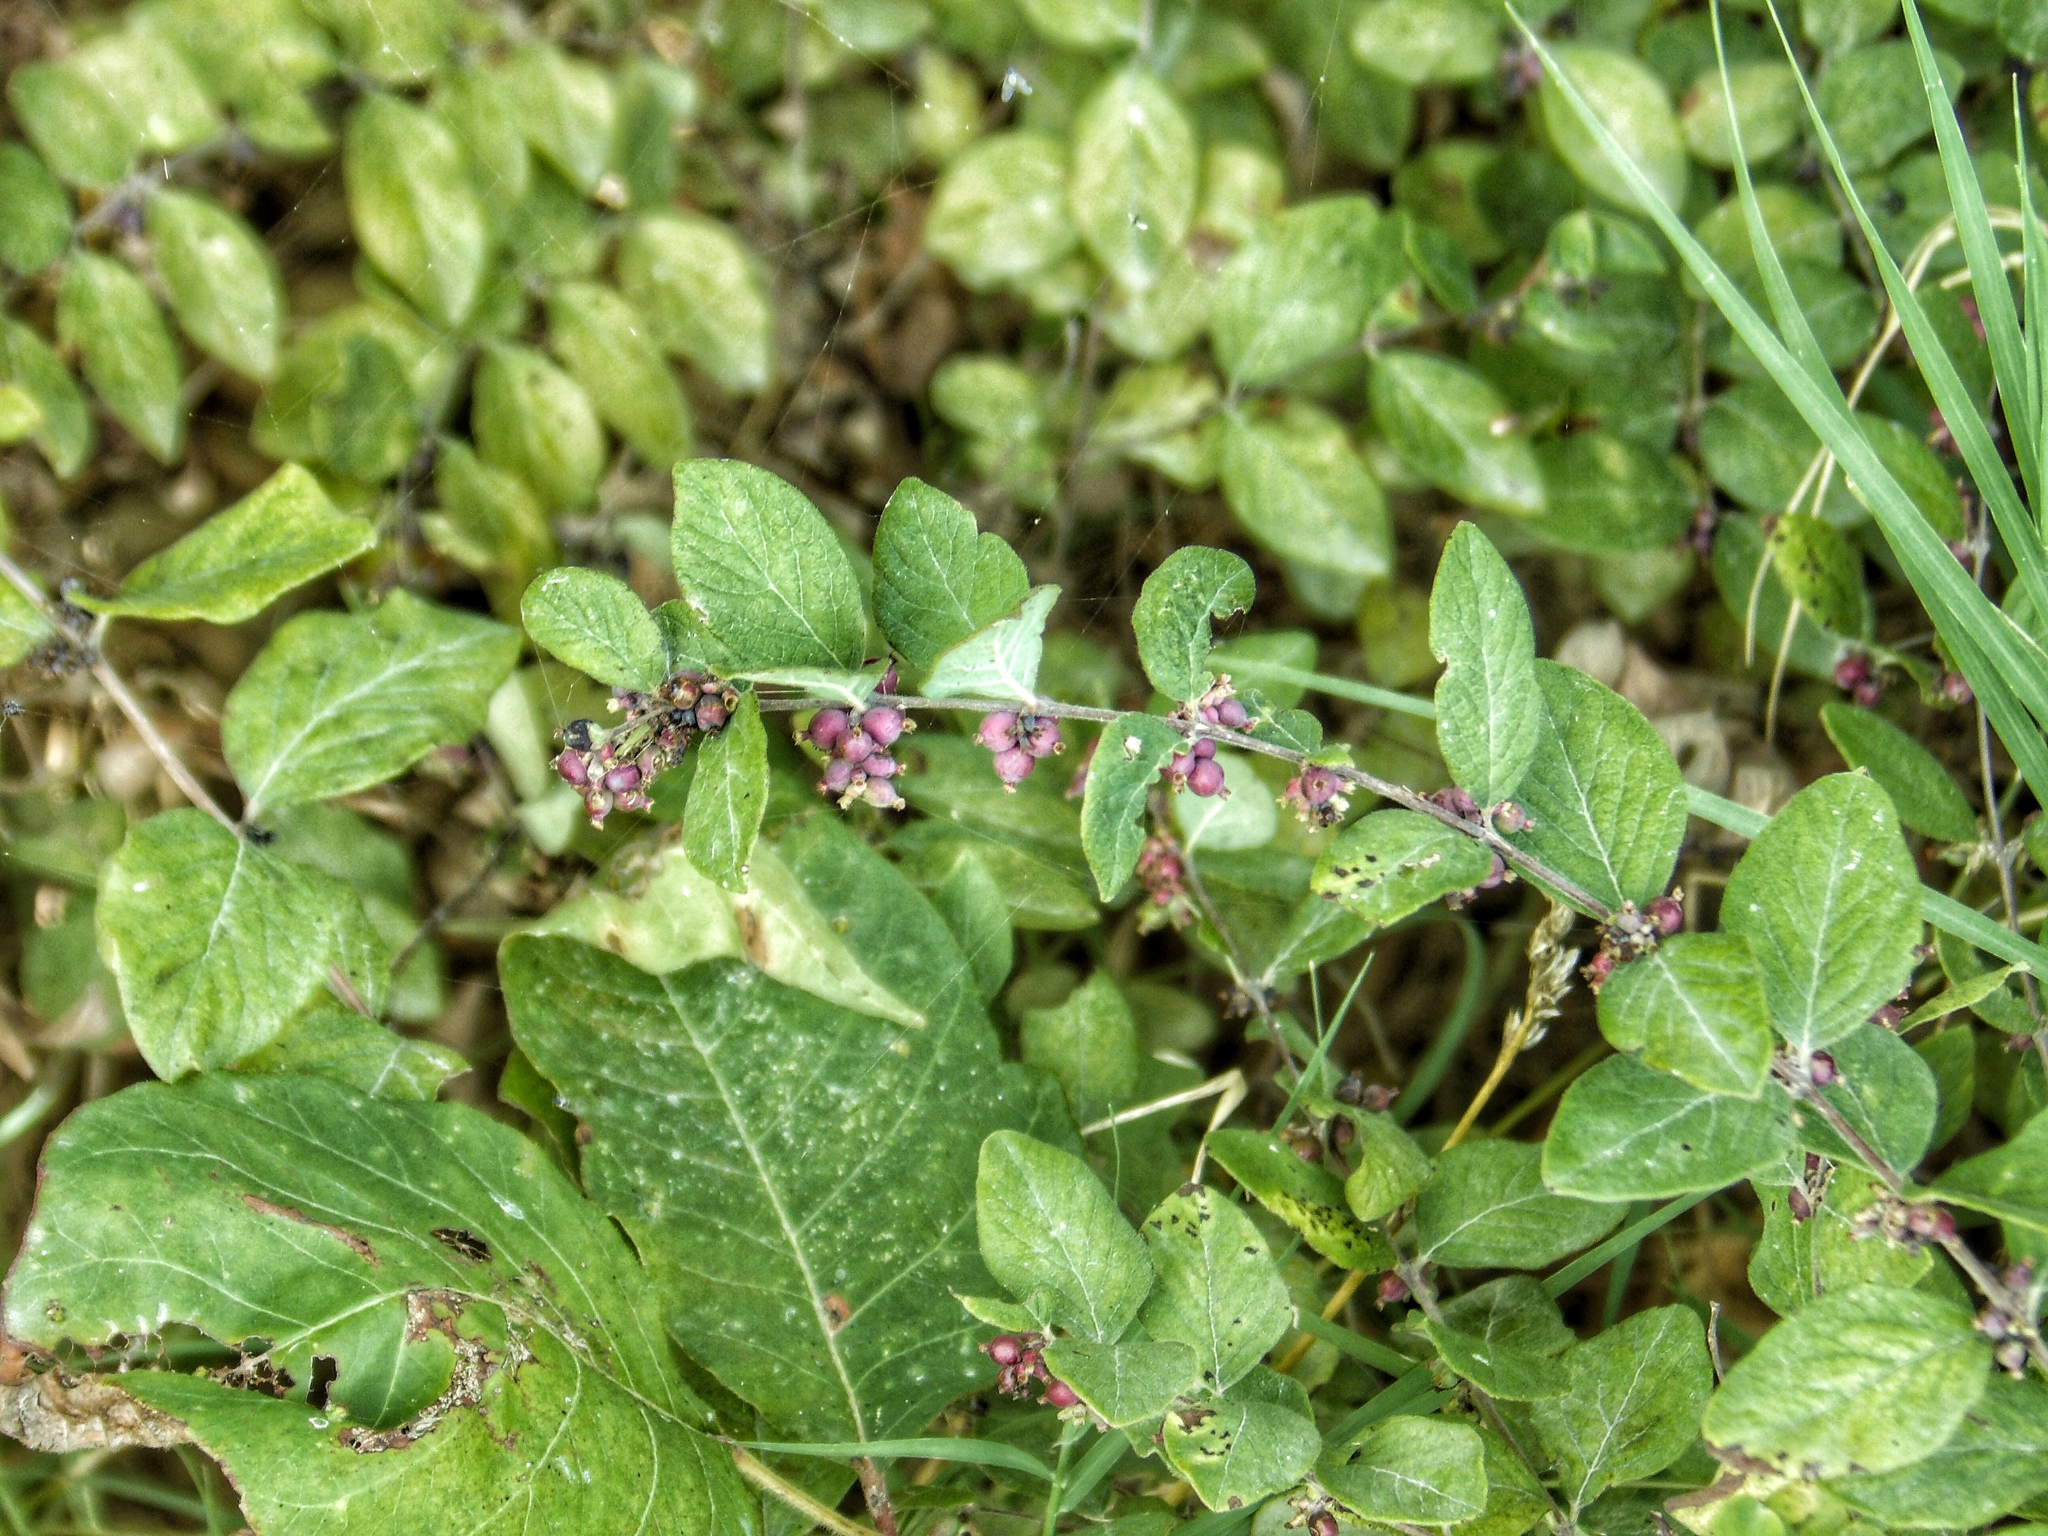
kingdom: Plantae
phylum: Tracheophyta
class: Magnoliopsida
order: Dipsacales
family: Caprifoliaceae
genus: Symphoricarpos
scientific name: Symphoricarpos orbiculatus
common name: Coralberry
